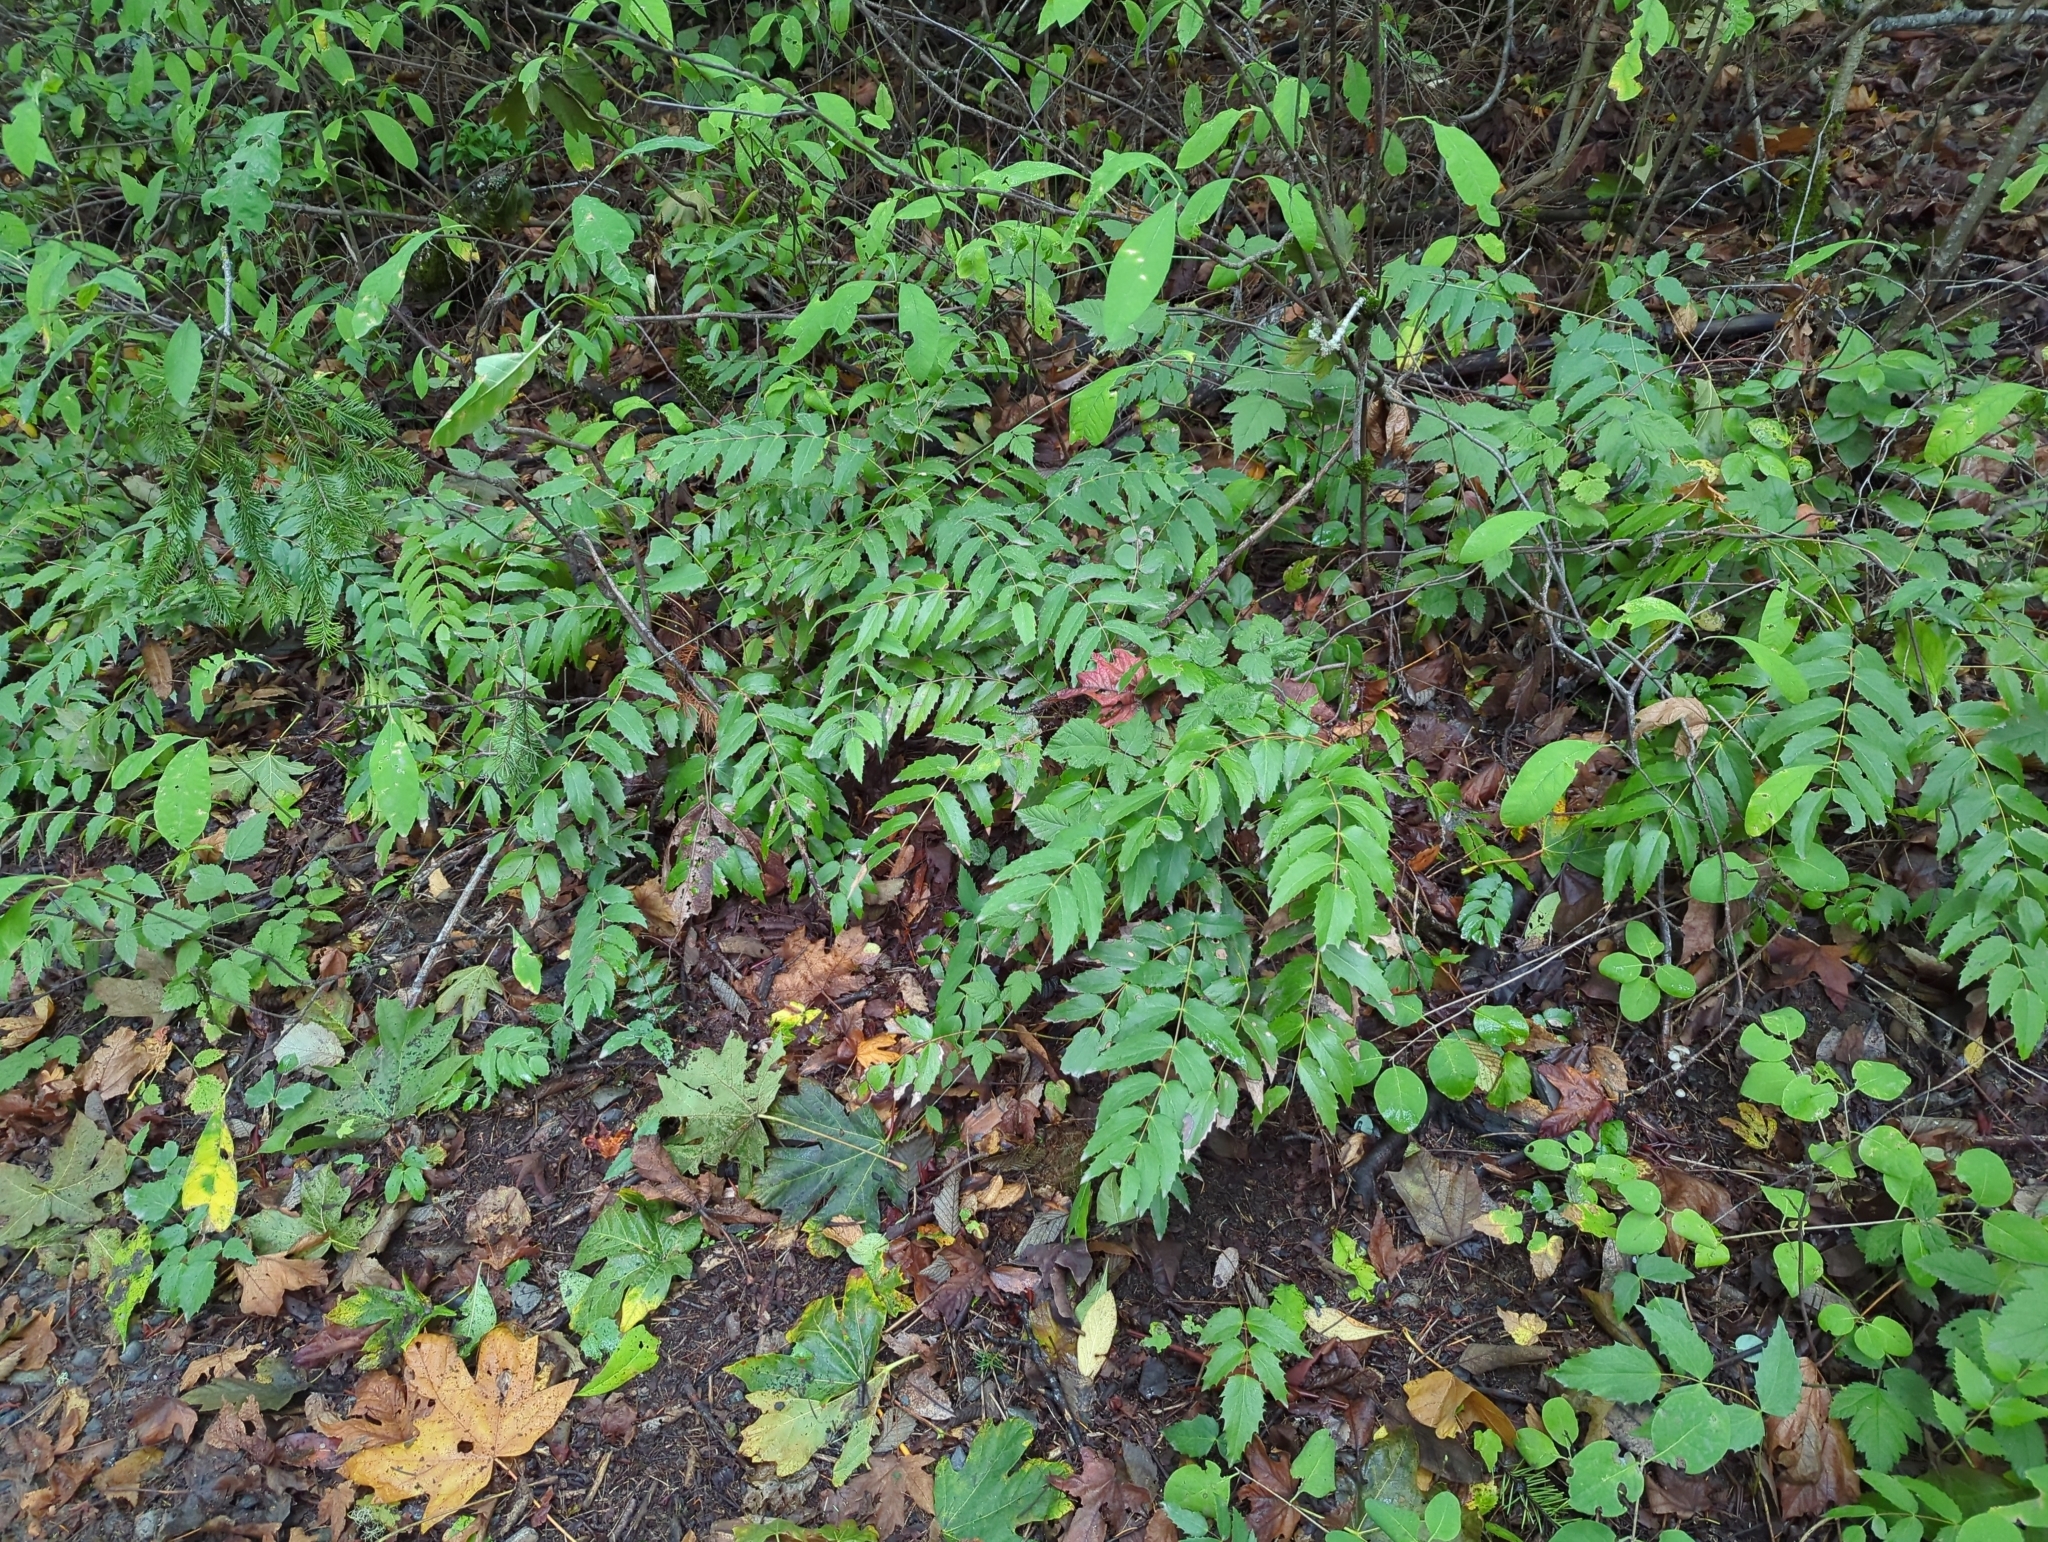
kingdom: Plantae
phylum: Tracheophyta
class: Magnoliopsida
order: Ranunculales
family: Berberidaceae
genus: Mahonia
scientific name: Mahonia nervosa
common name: Cascade oregon-grape
